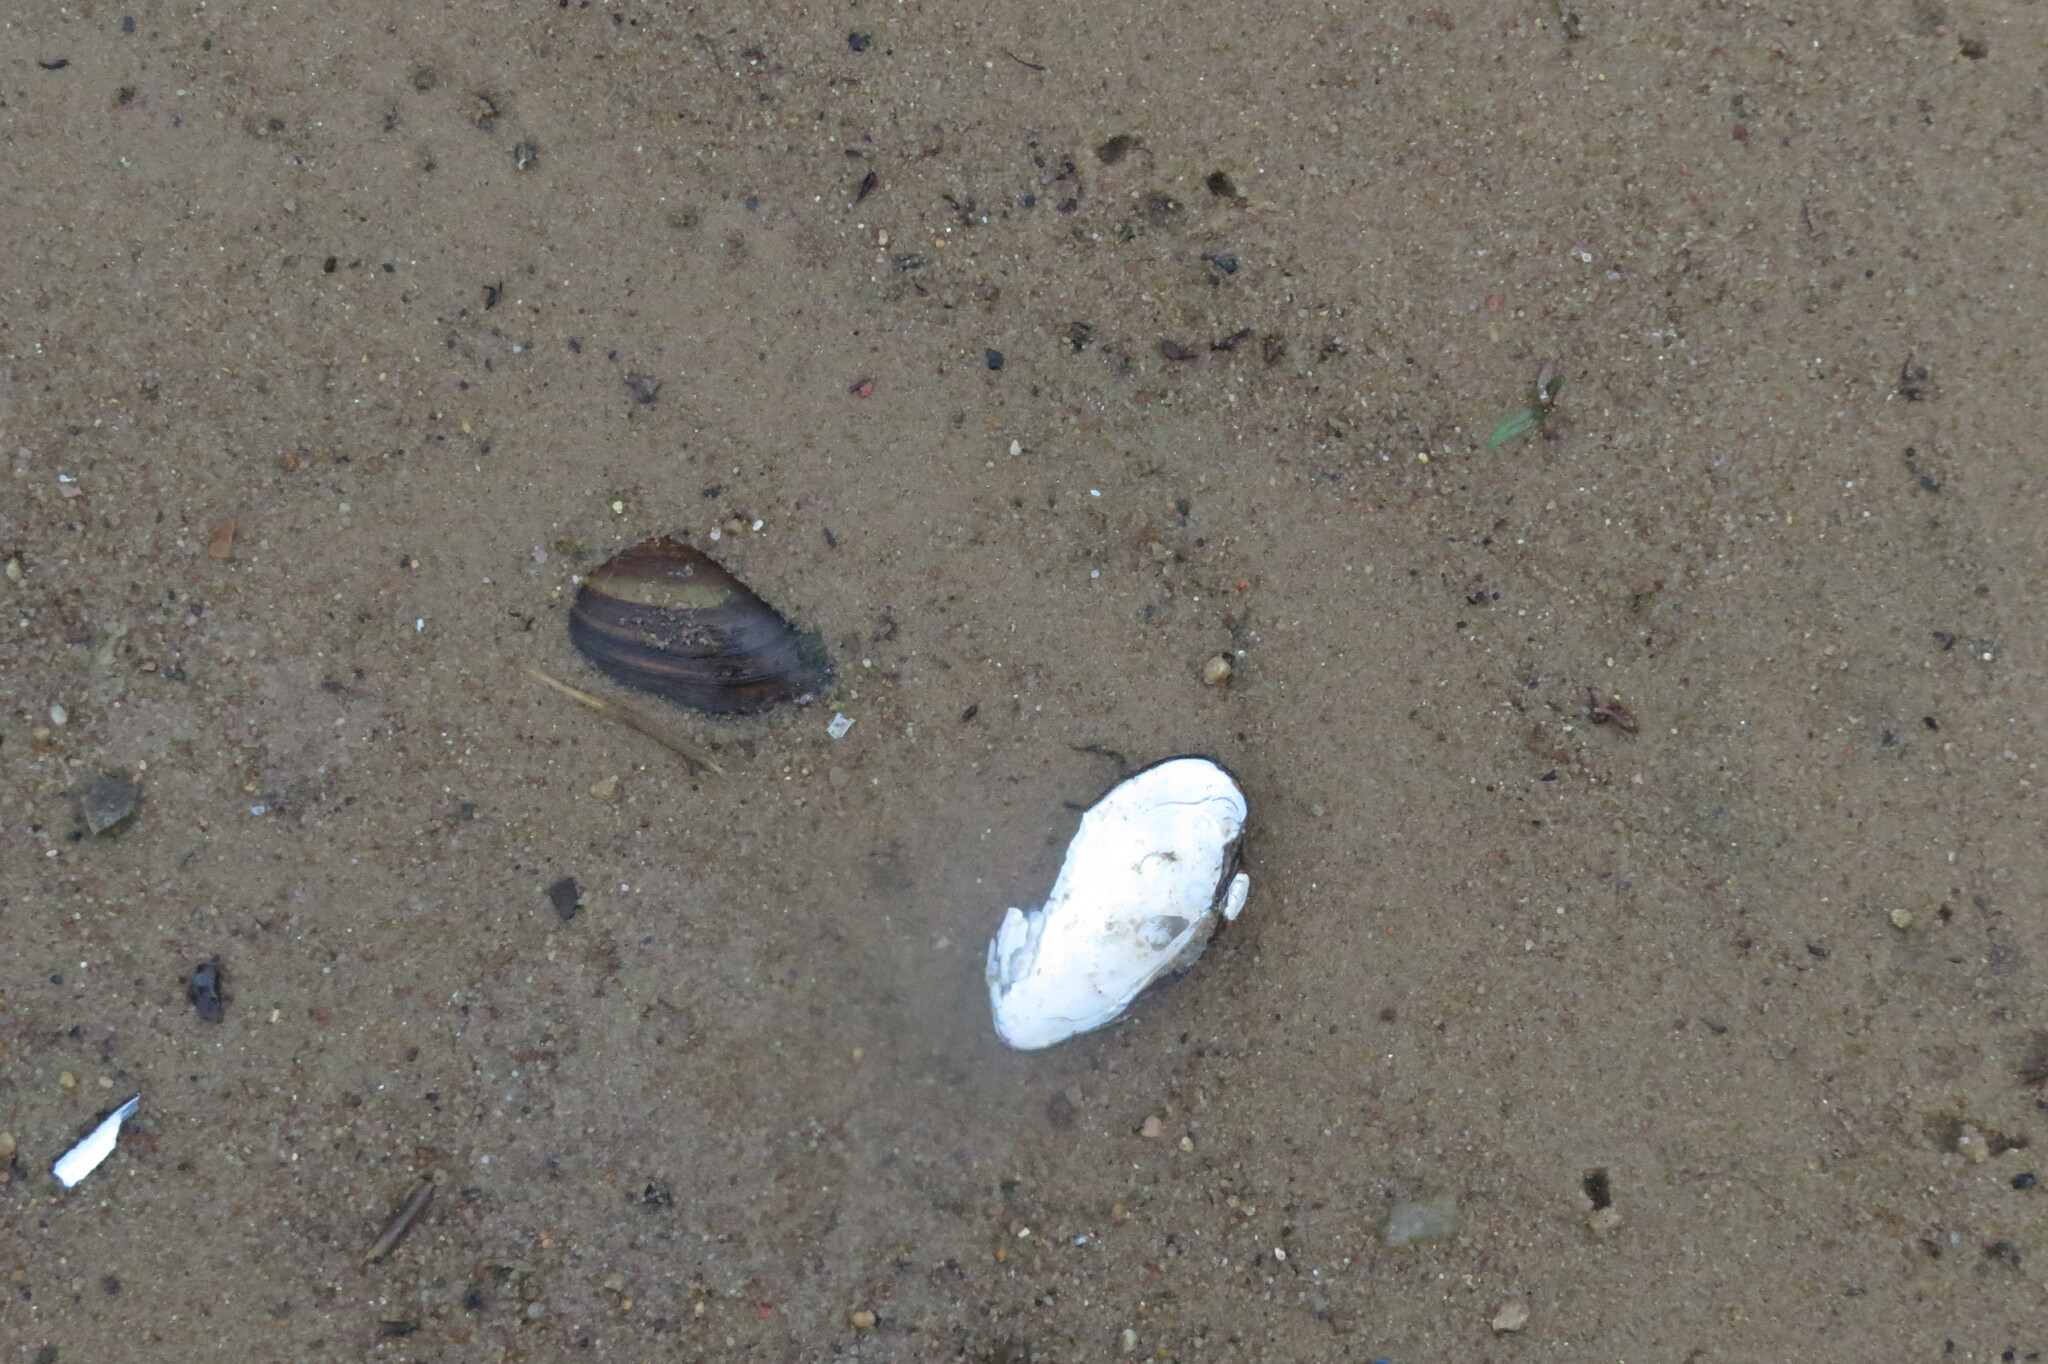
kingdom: Animalia
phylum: Mollusca
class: Bivalvia
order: Unionida
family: Unionidae
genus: Unio
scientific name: Unio tumidus
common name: Swollen river mussel
